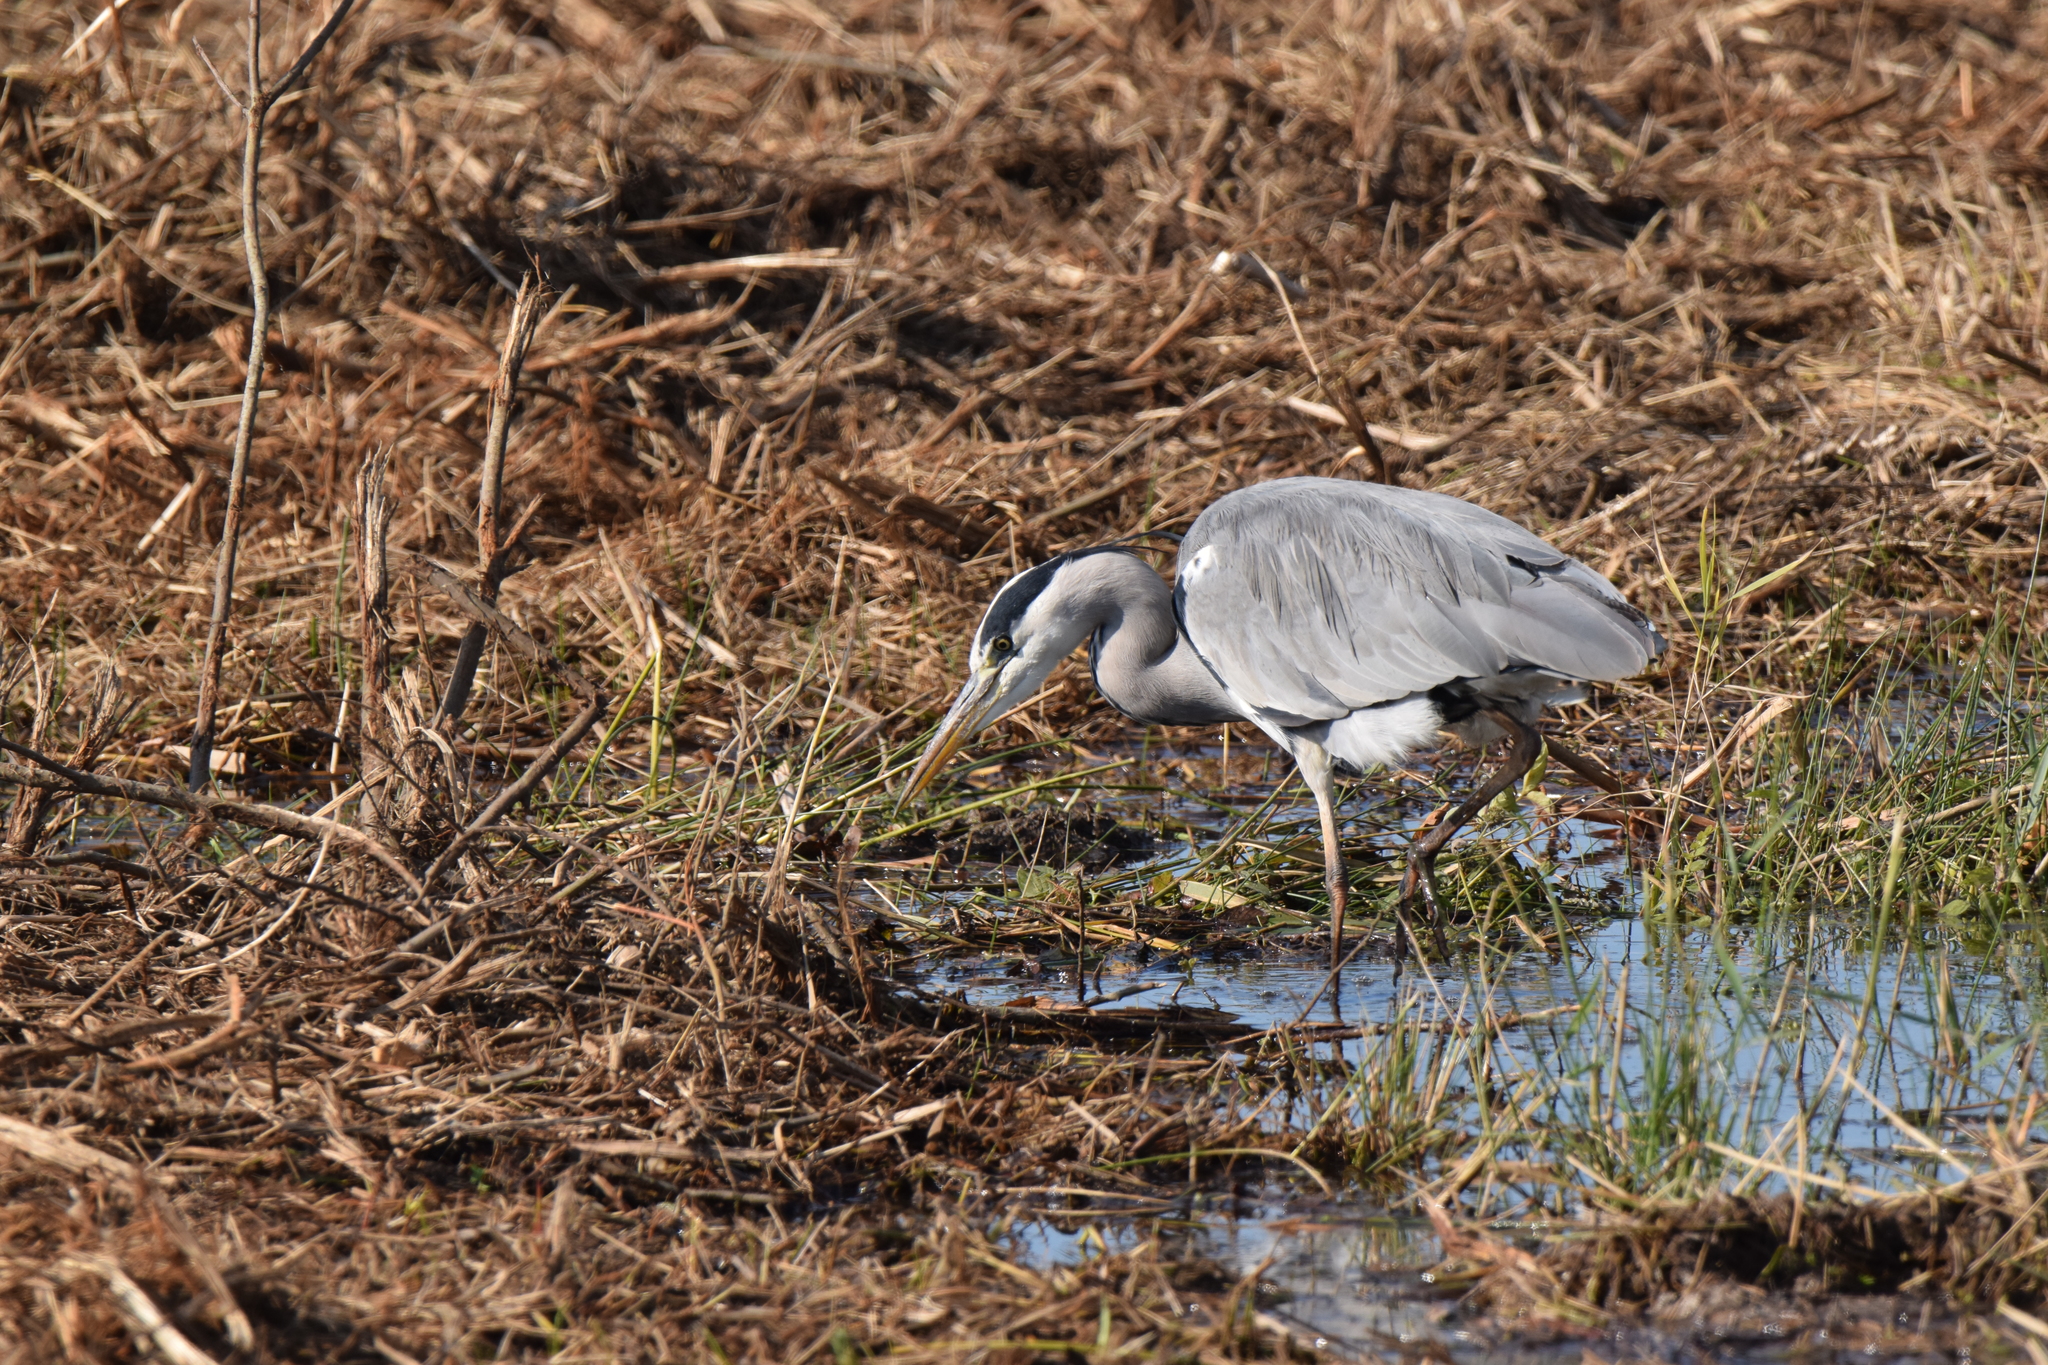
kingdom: Animalia
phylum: Chordata
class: Aves
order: Pelecaniformes
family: Ardeidae
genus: Ardea
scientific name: Ardea cinerea
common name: Grey heron
